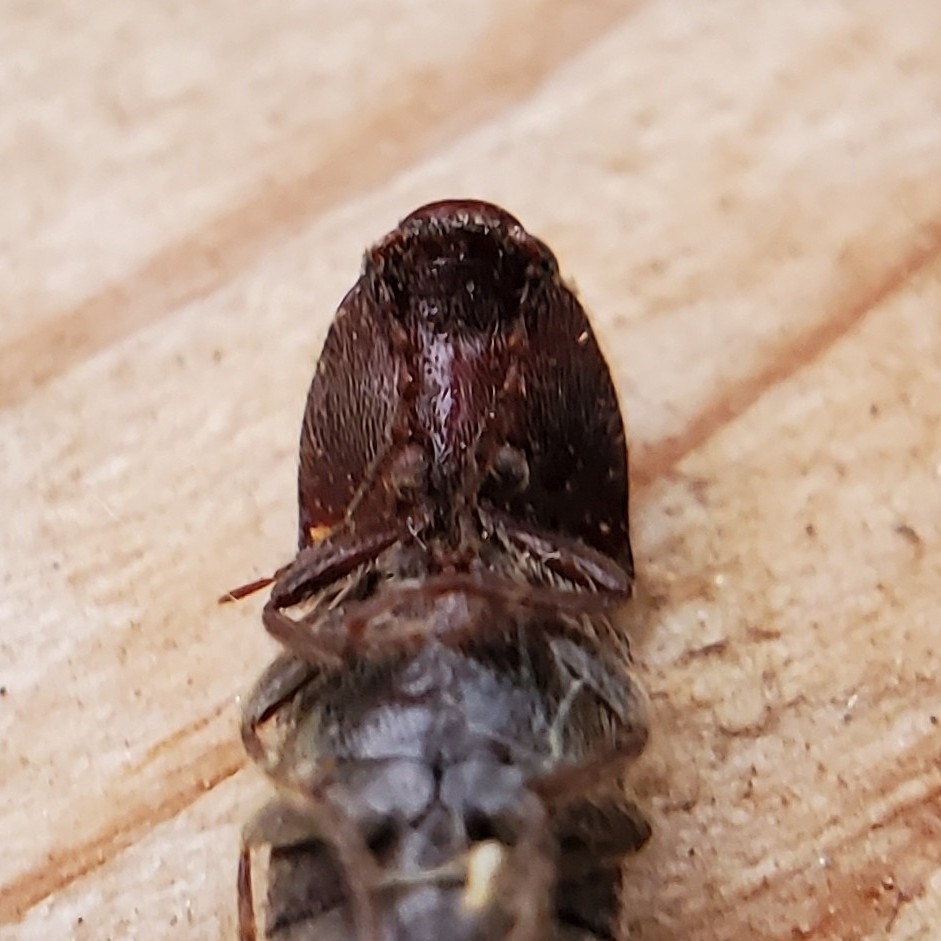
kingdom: Animalia
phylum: Arthropoda
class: Insecta
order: Coleoptera
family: Elateridae
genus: Melanotus
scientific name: Melanotus
